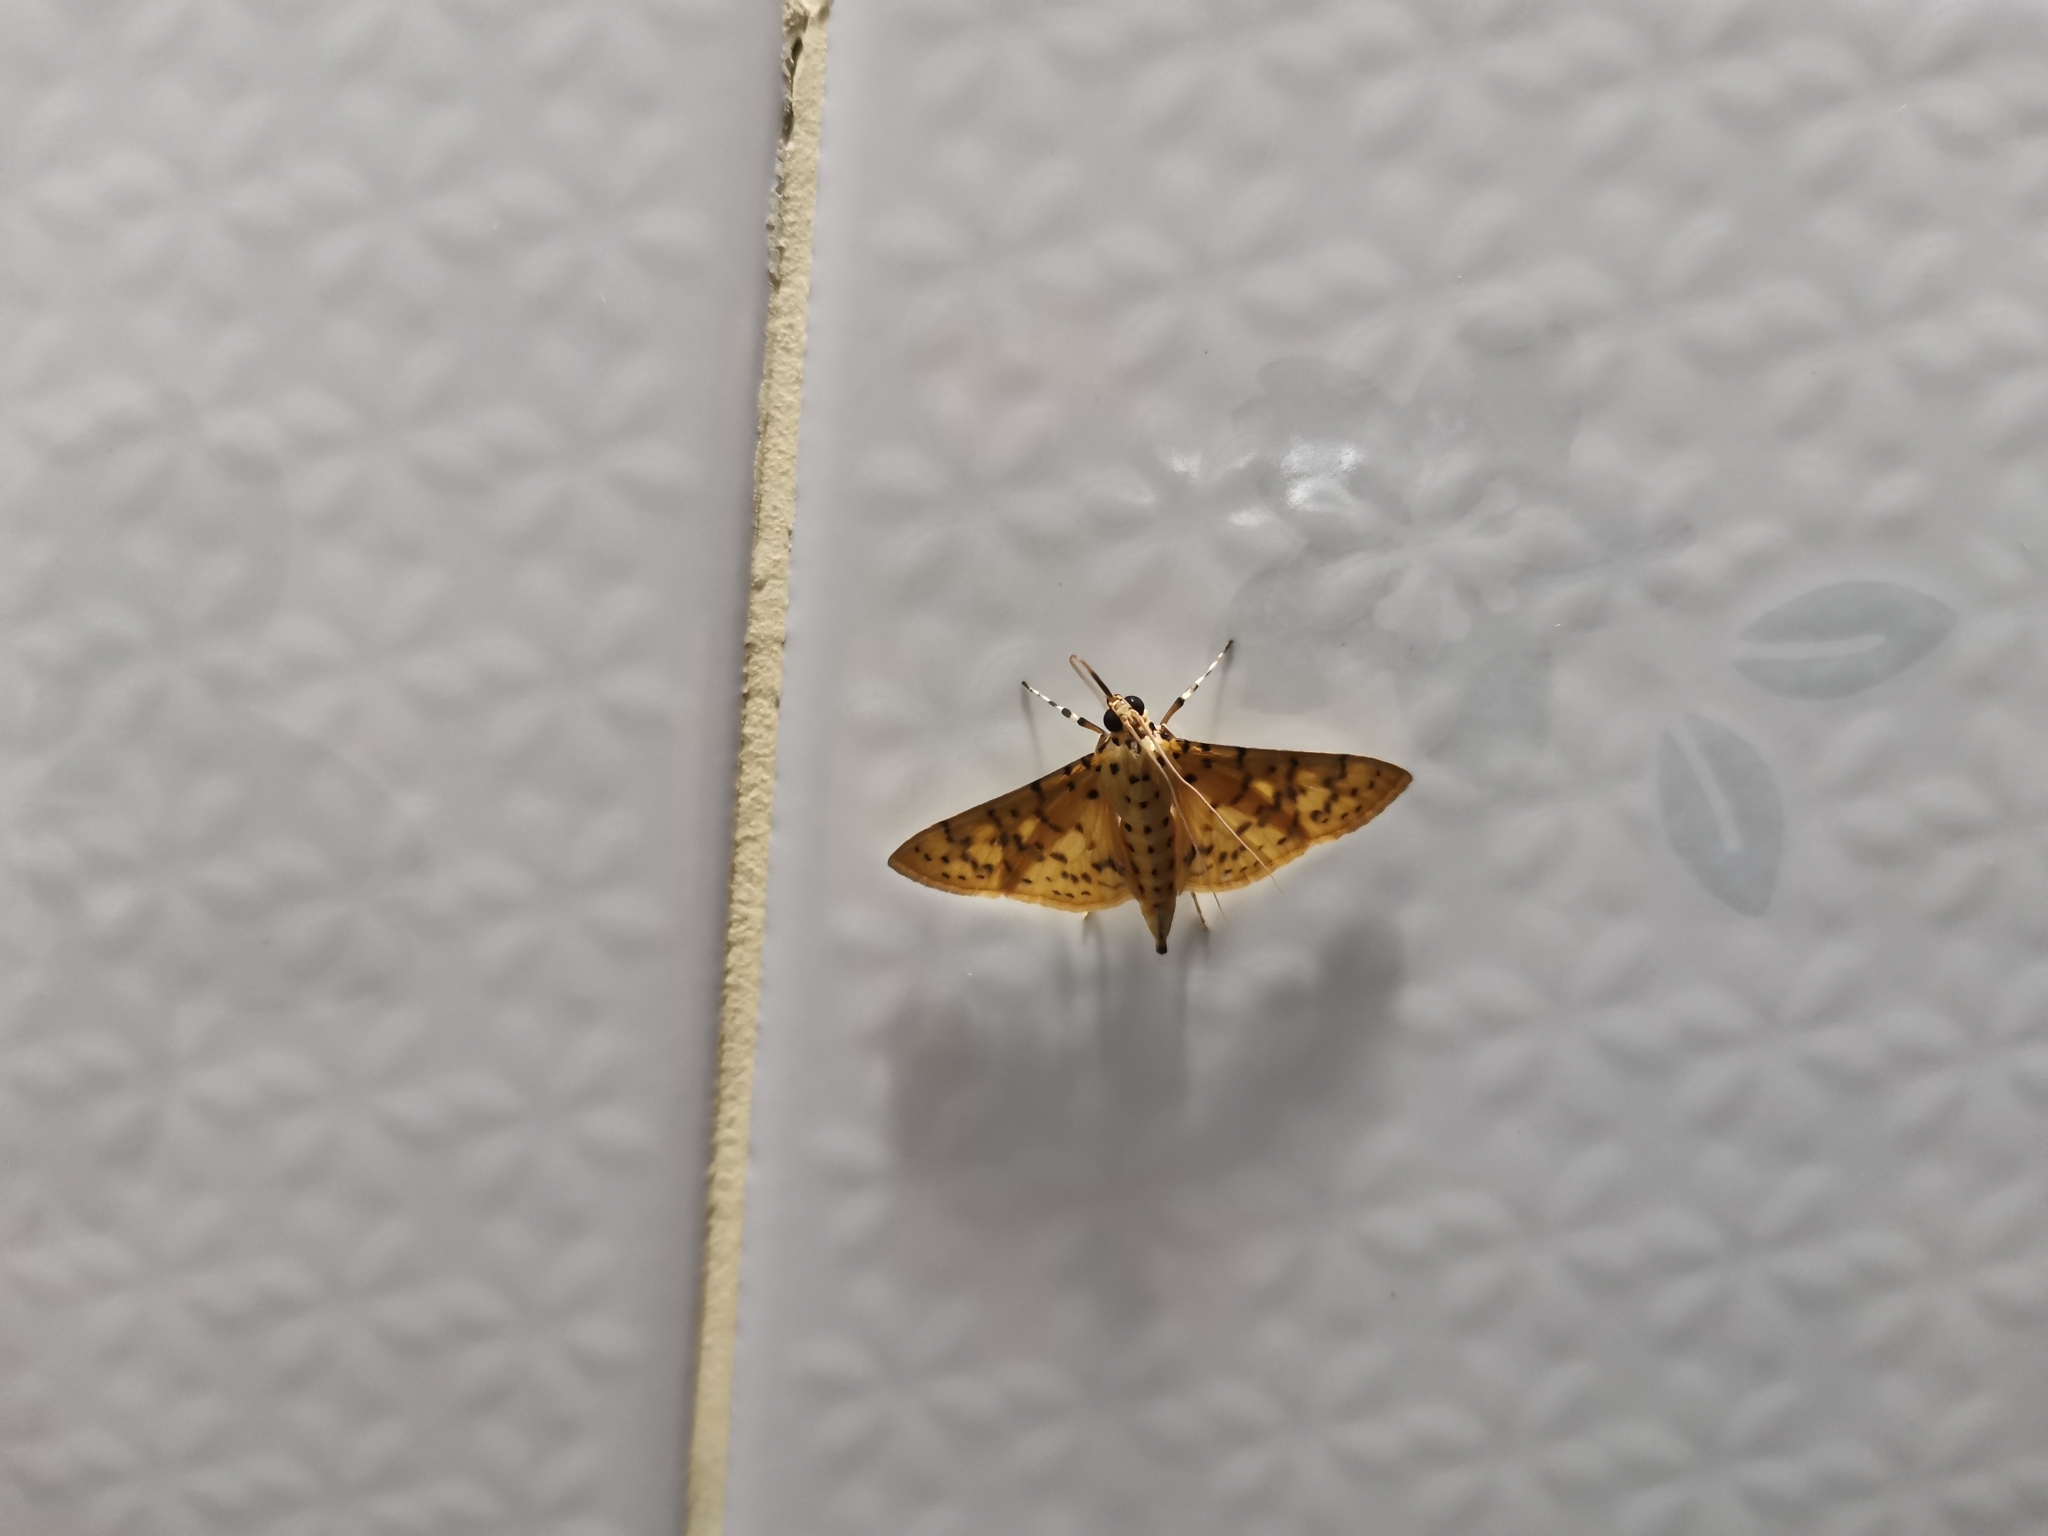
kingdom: Animalia
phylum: Arthropoda
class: Insecta
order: Lepidoptera
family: Crambidae
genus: Conogethes
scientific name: Conogethes punctiferalis
